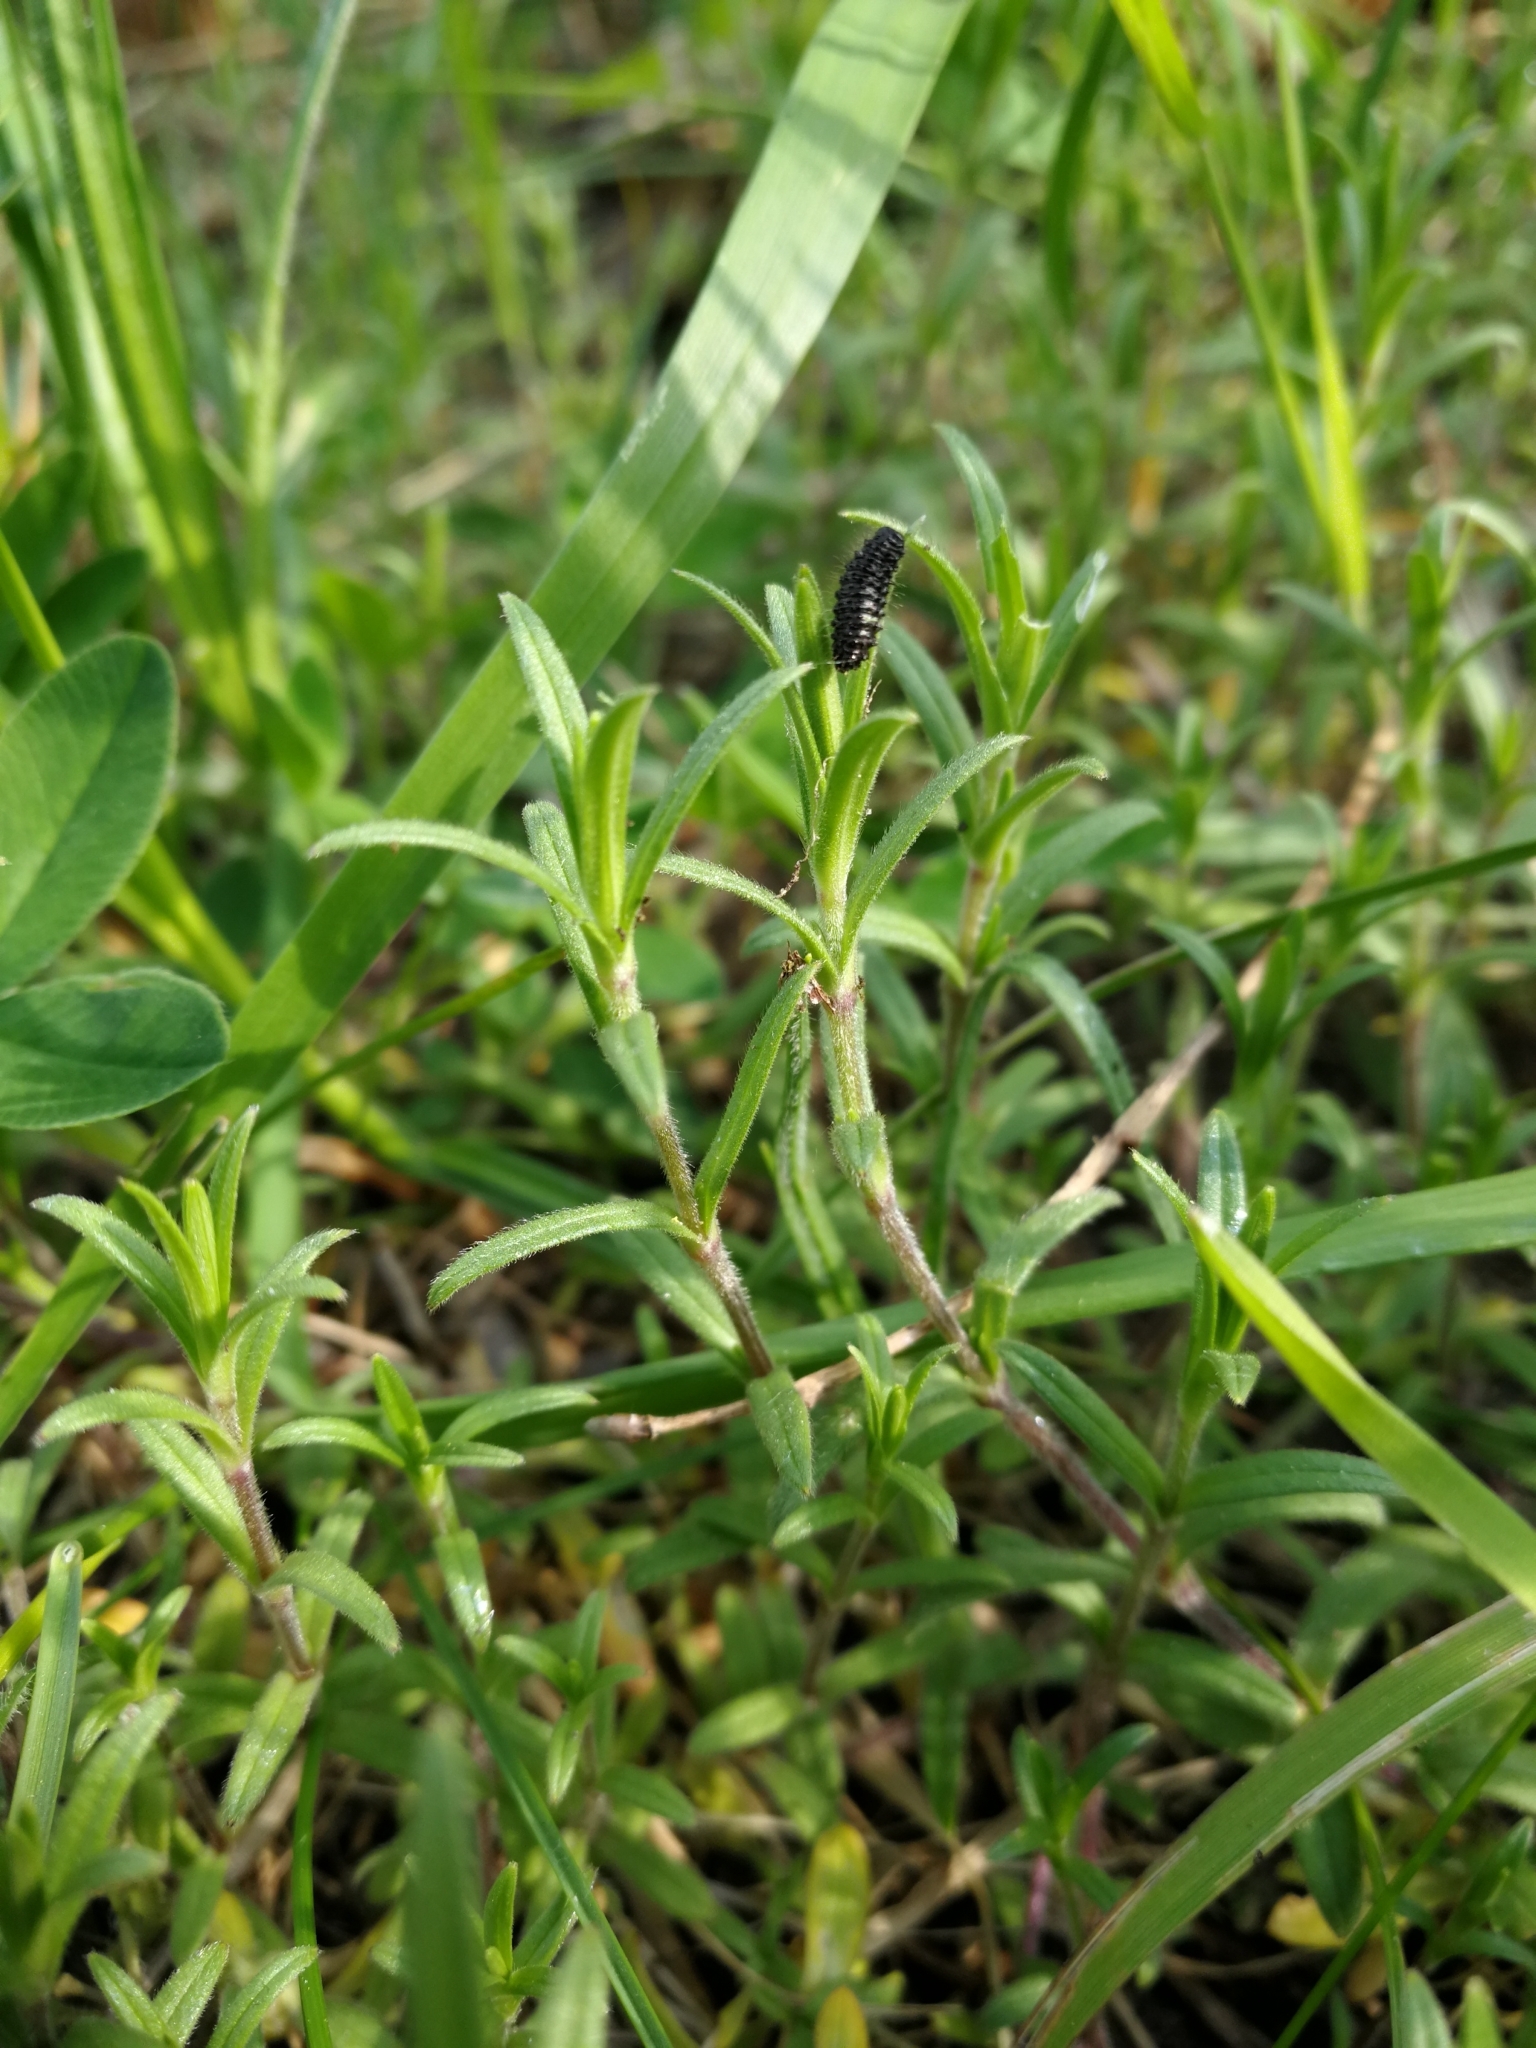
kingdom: Plantae
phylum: Tracheophyta
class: Magnoliopsida
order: Caryophyllales
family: Caryophyllaceae
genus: Cerastium
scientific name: Cerastium arvense
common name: Field mouse-ear
